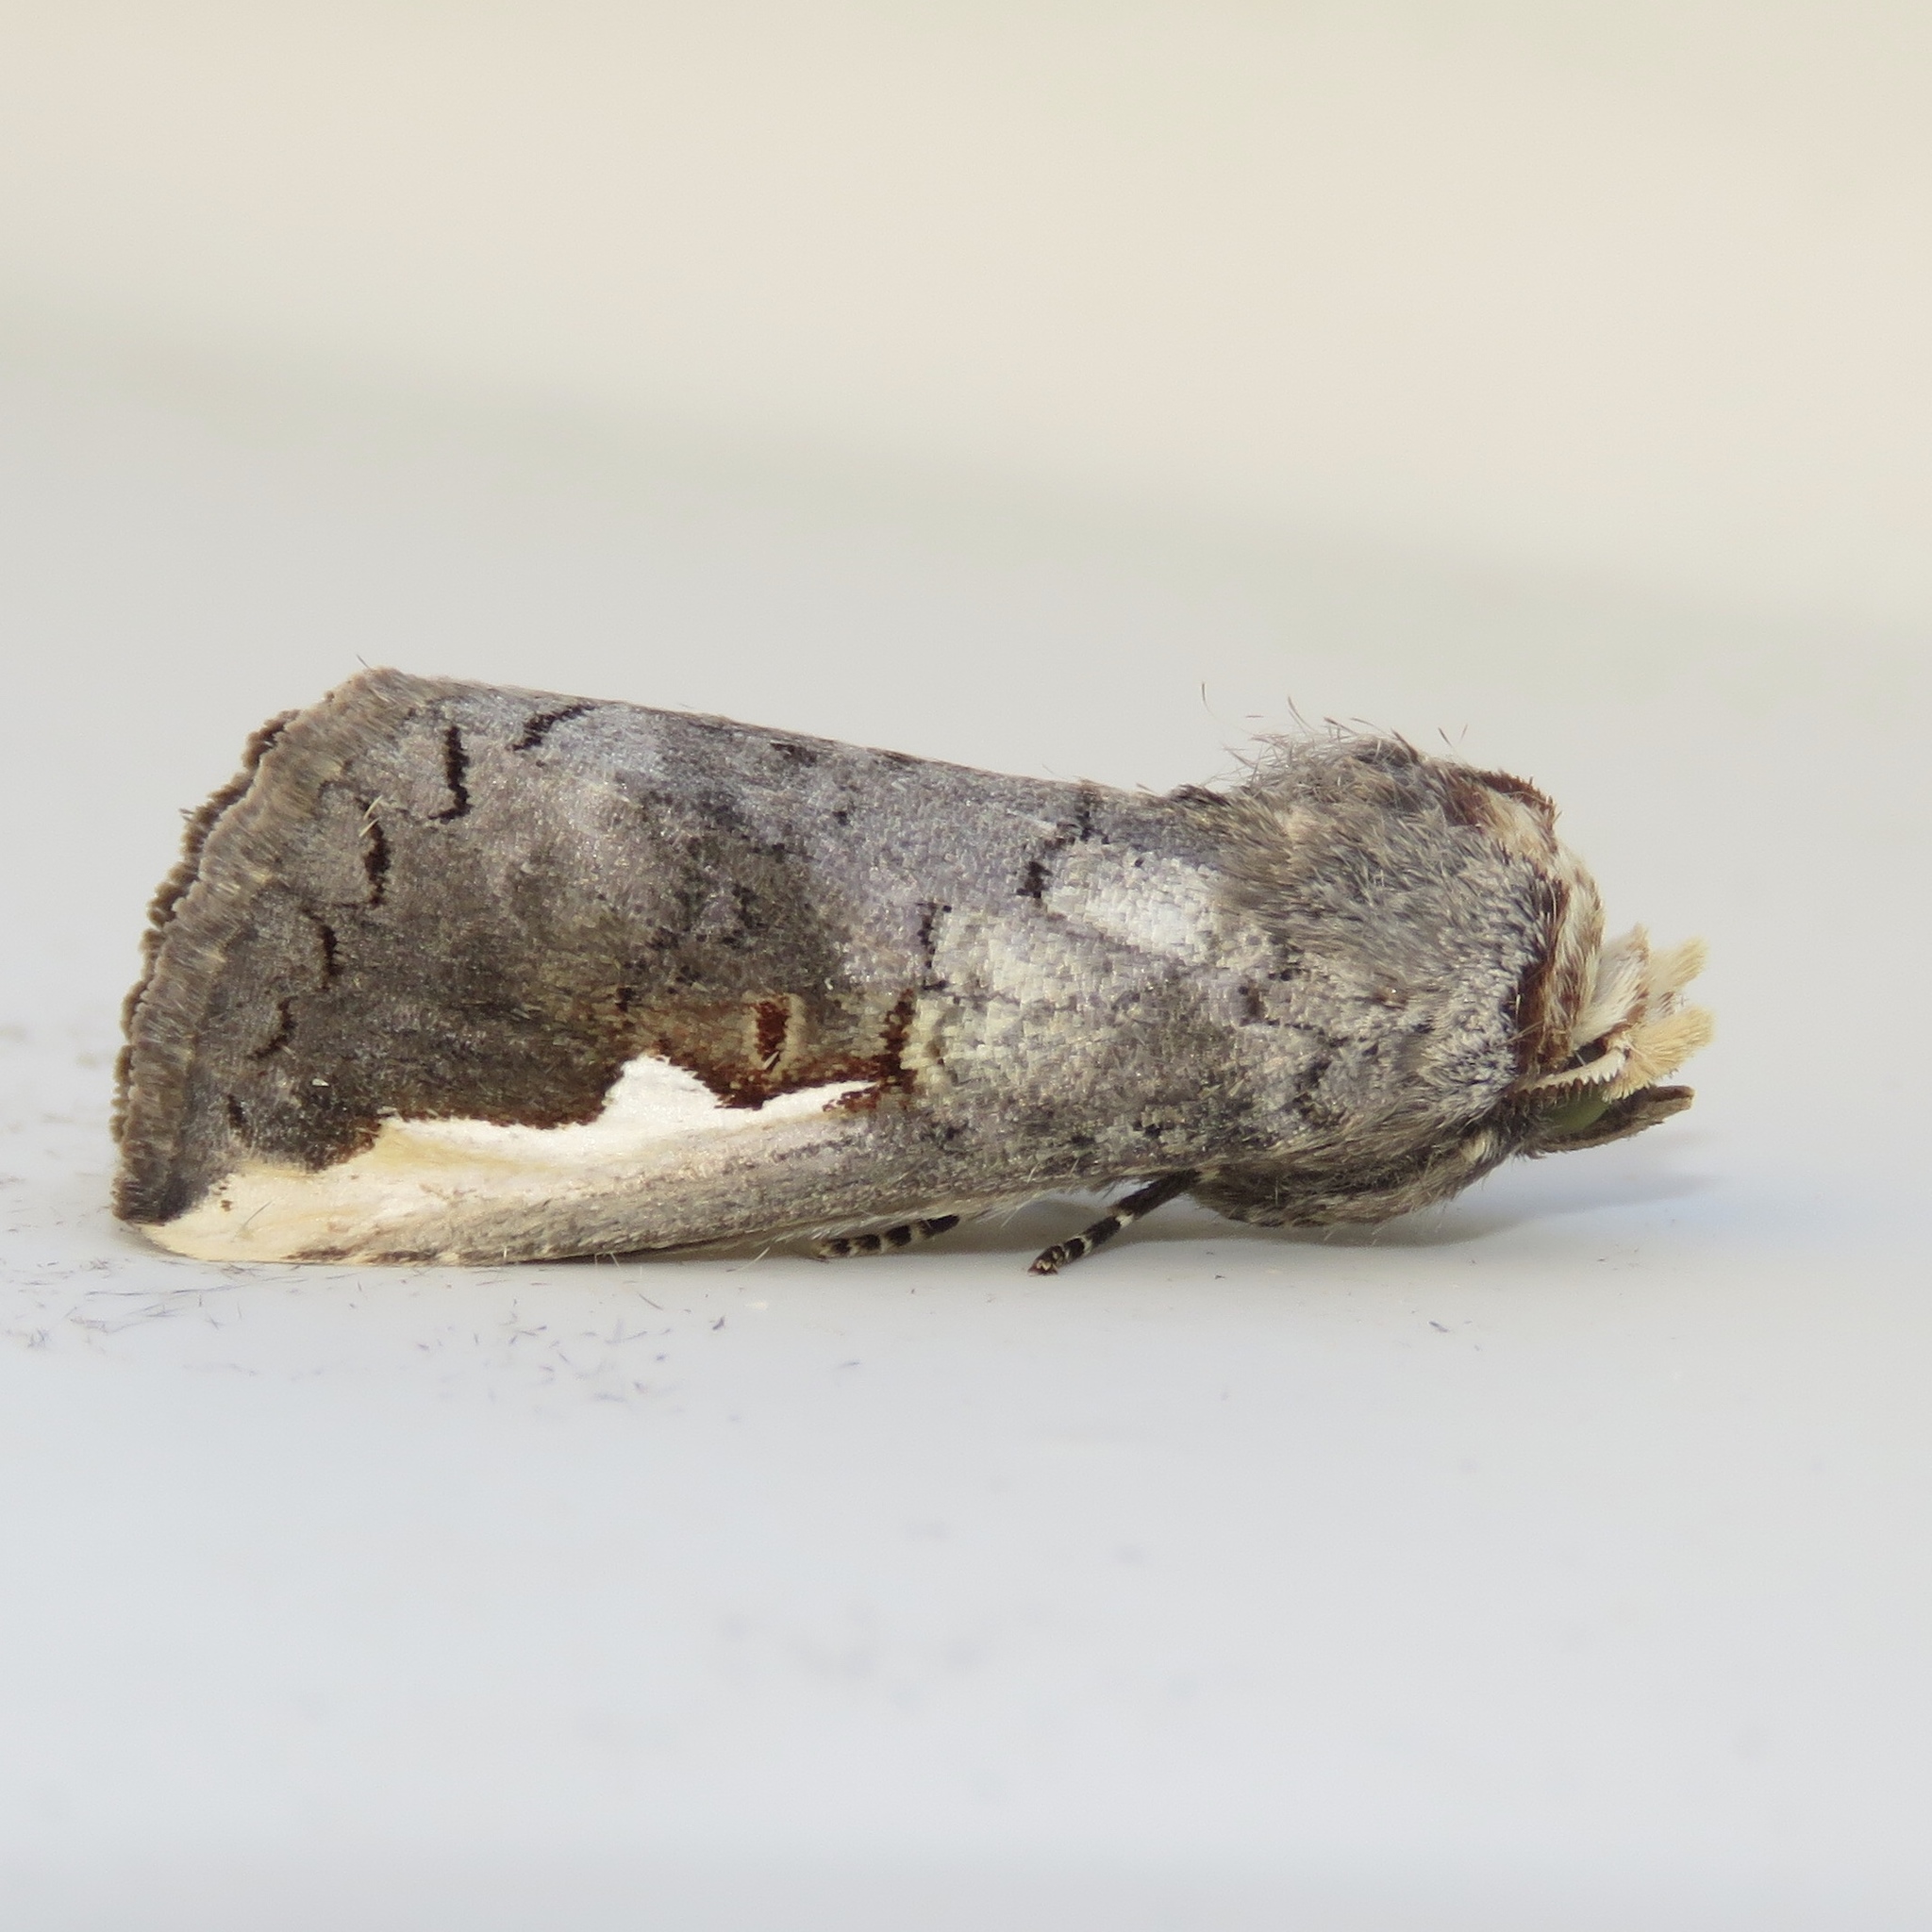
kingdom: Animalia
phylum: Arthropoda
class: Insecta
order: Lepidoptera
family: Notodontidae
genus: Symmerista
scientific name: Symmerista albifrons
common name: White-headed prominent
